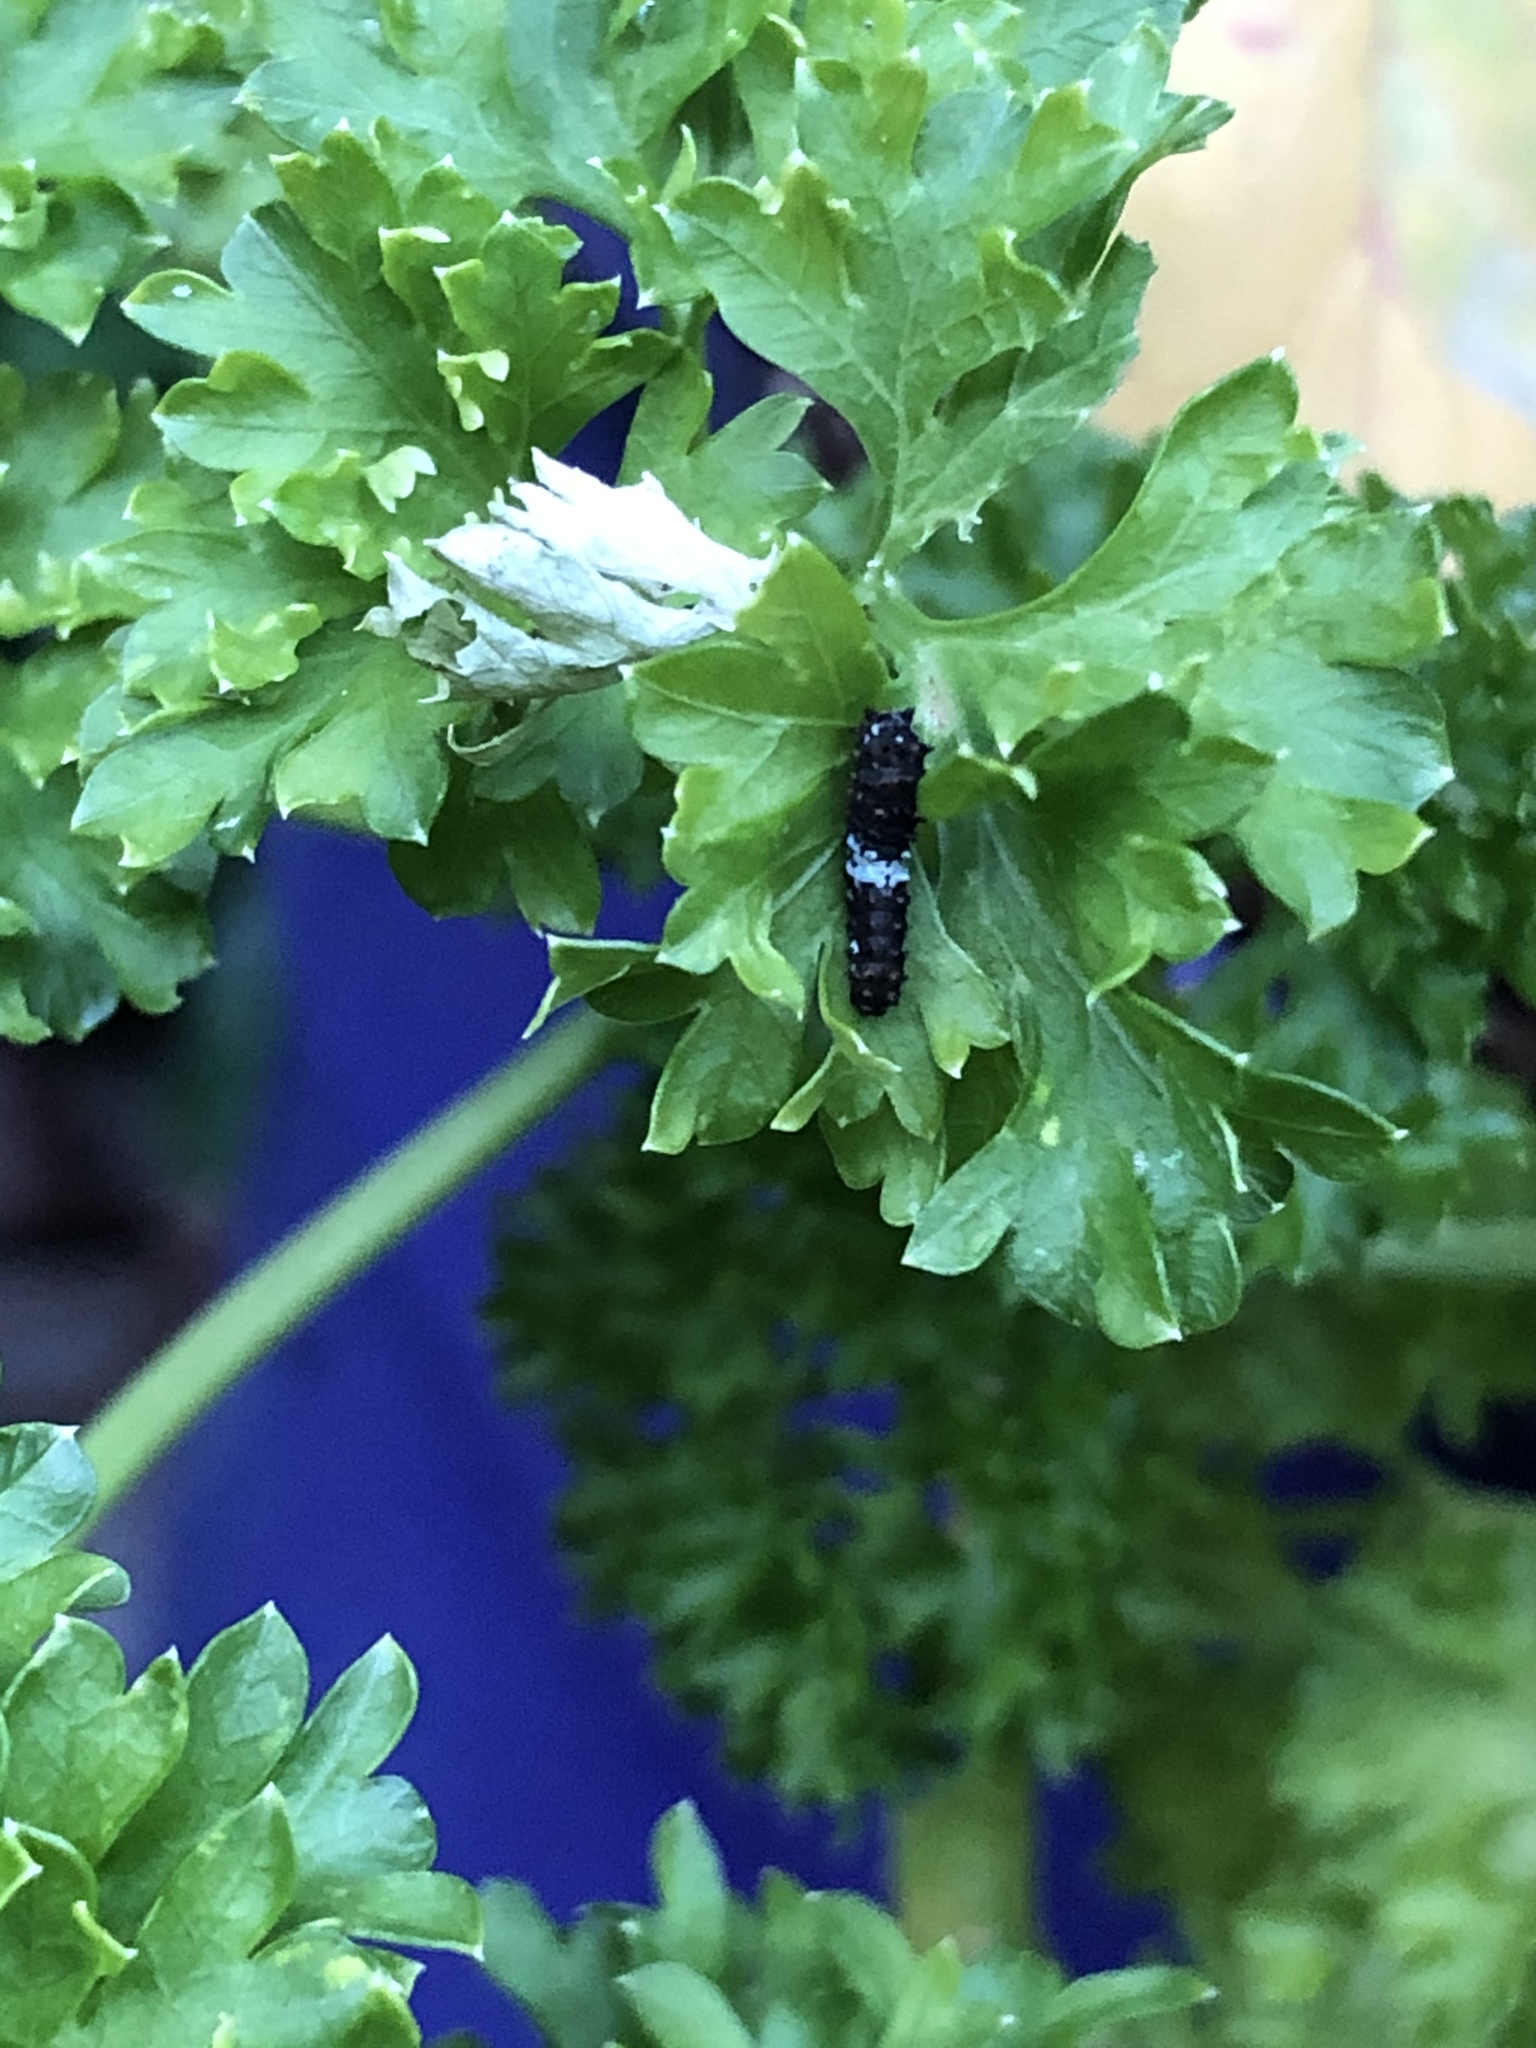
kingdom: Animalia
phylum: Arthropoda
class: Insecta
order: Lepidoptera
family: Papilionidae
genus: Papilio
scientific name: Papilio polyxenes
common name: Black swallowtail
